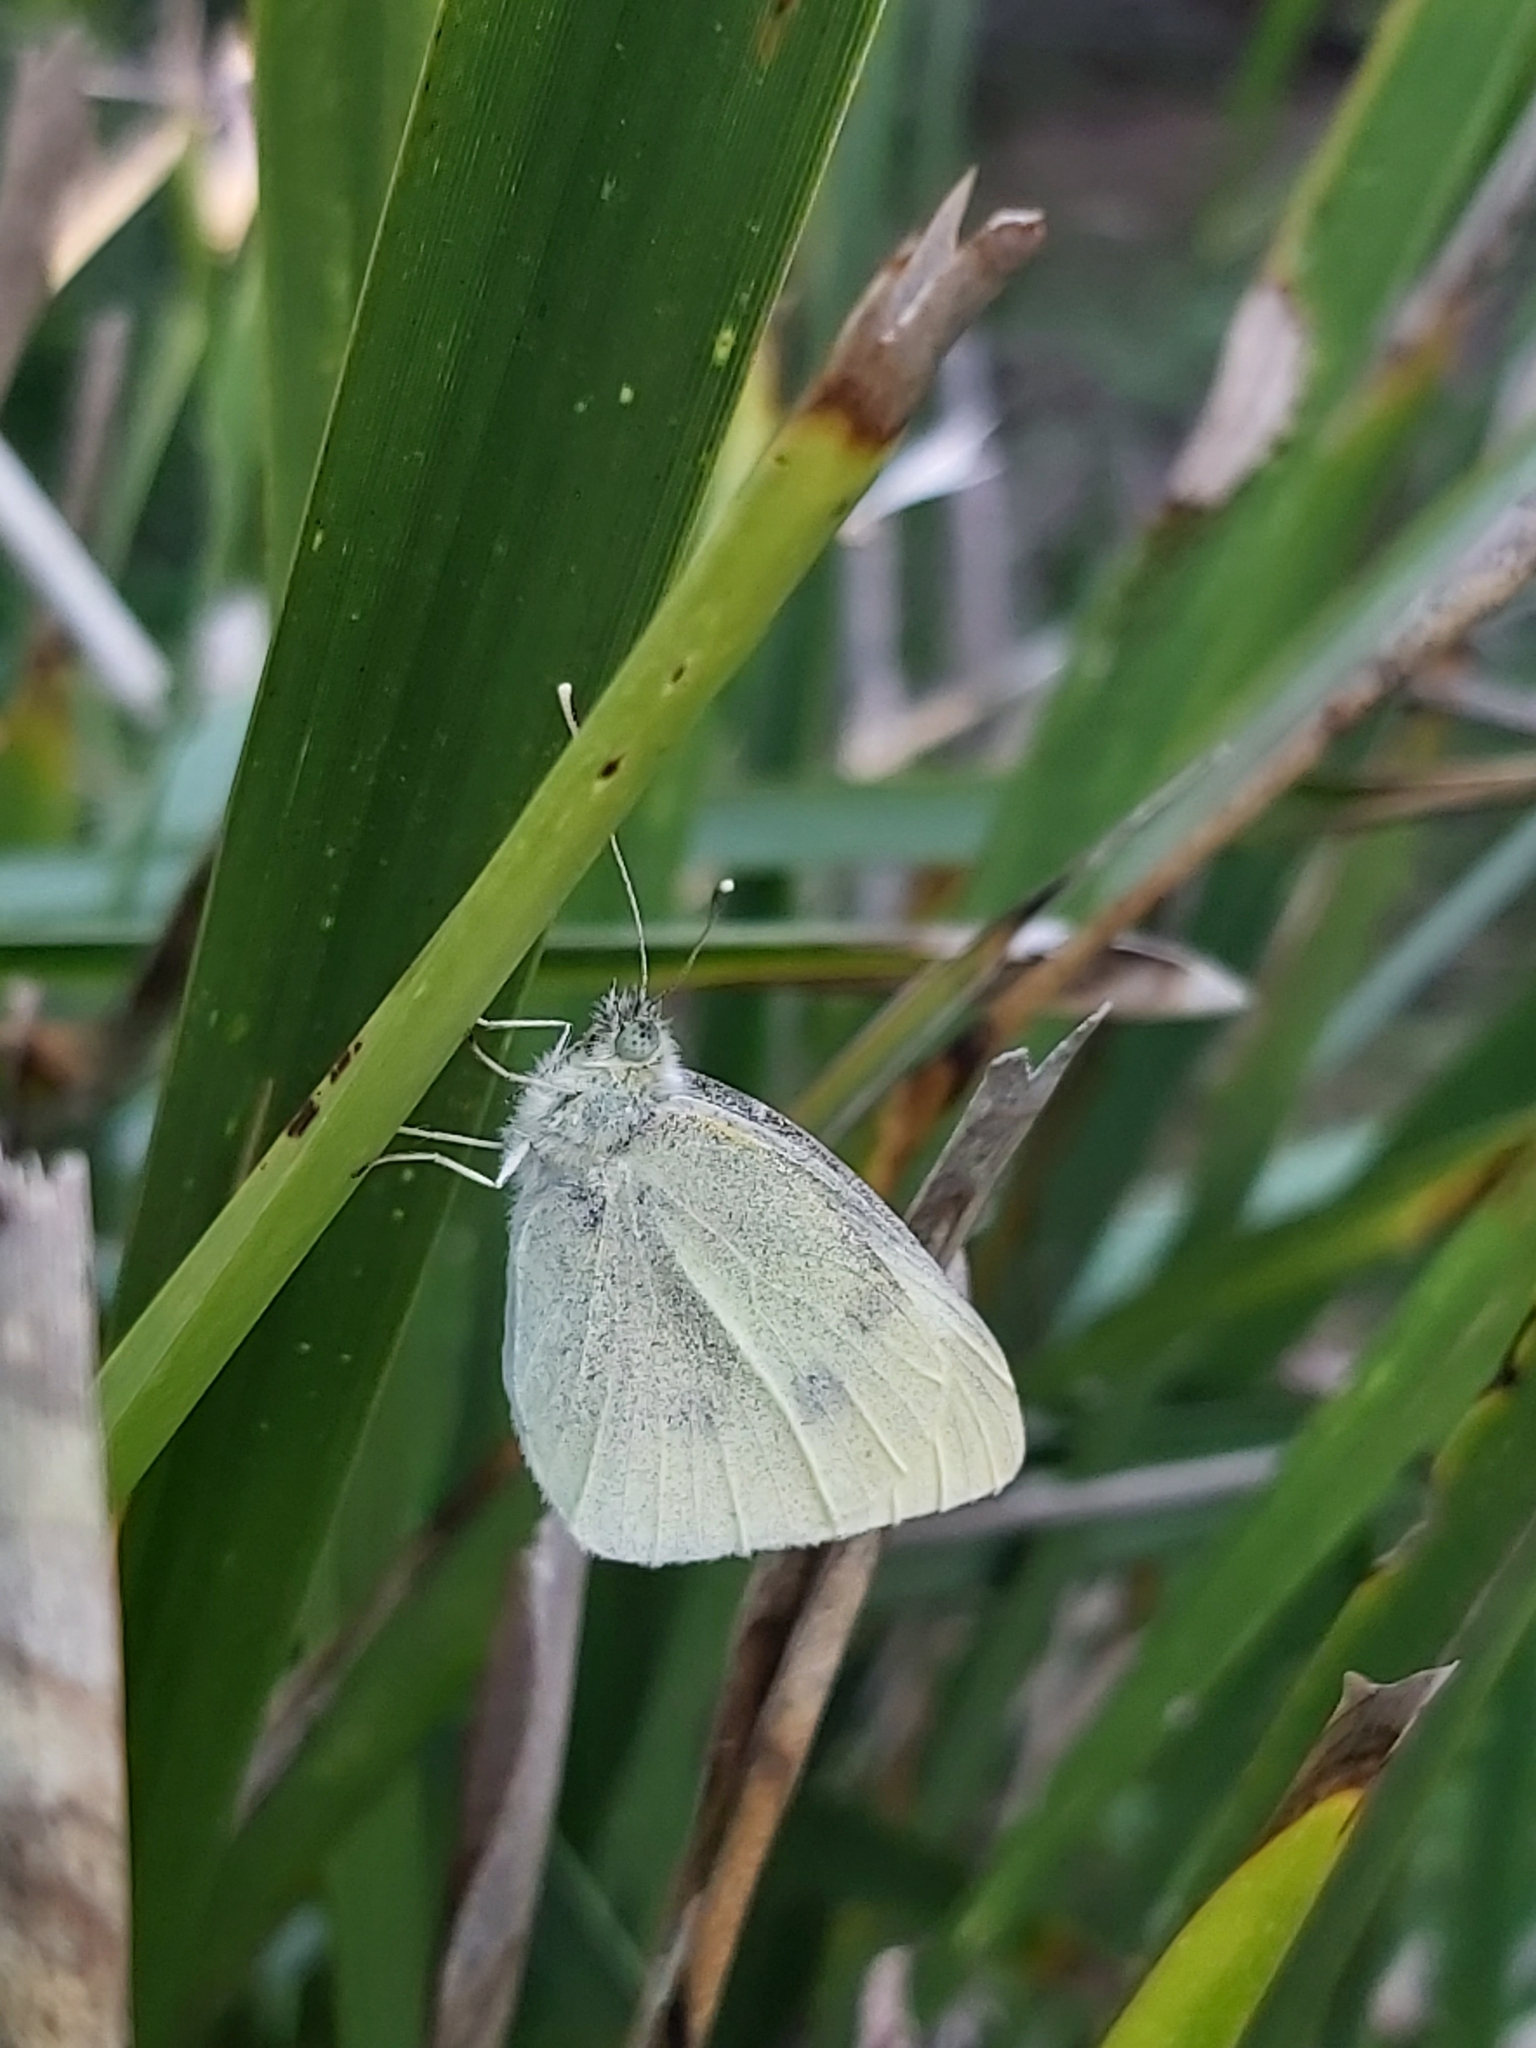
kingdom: Animalia
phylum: Arthropoda
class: Insecta
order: Lepidoptera
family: Pieridae
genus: Pieris
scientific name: Pieris rapae
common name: Small white
